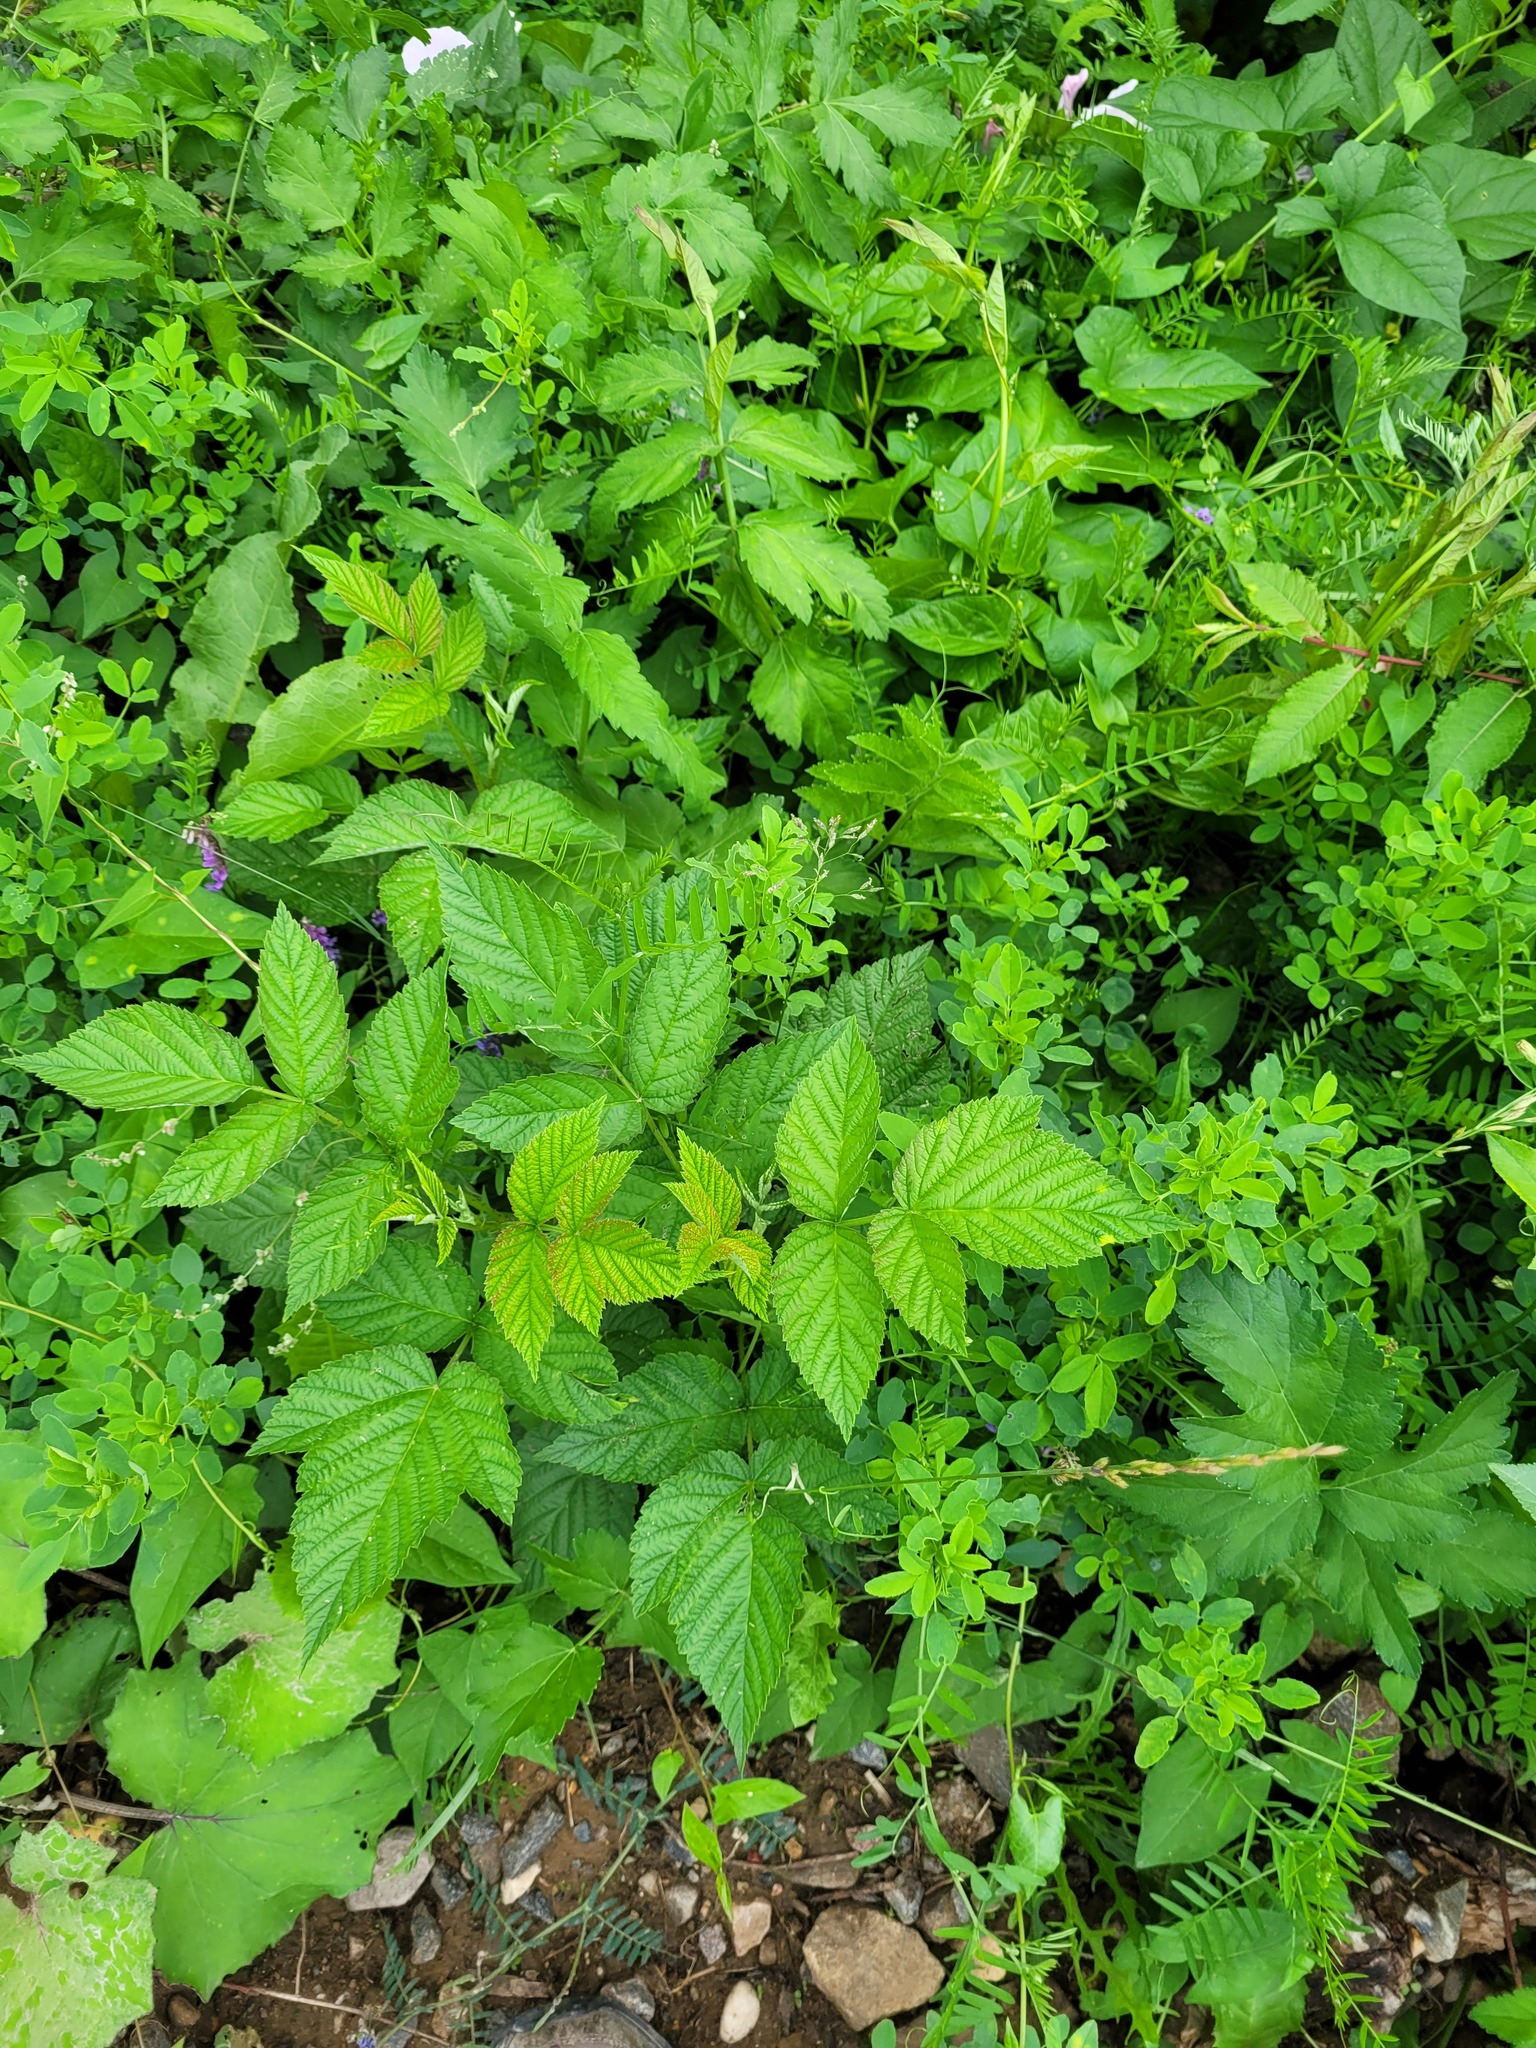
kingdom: Plantae
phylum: Tracheophyta
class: Magnoliopsida
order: Rosales
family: Rosaceae
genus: Rubus
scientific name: Rubus idaeus
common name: Raspberry
